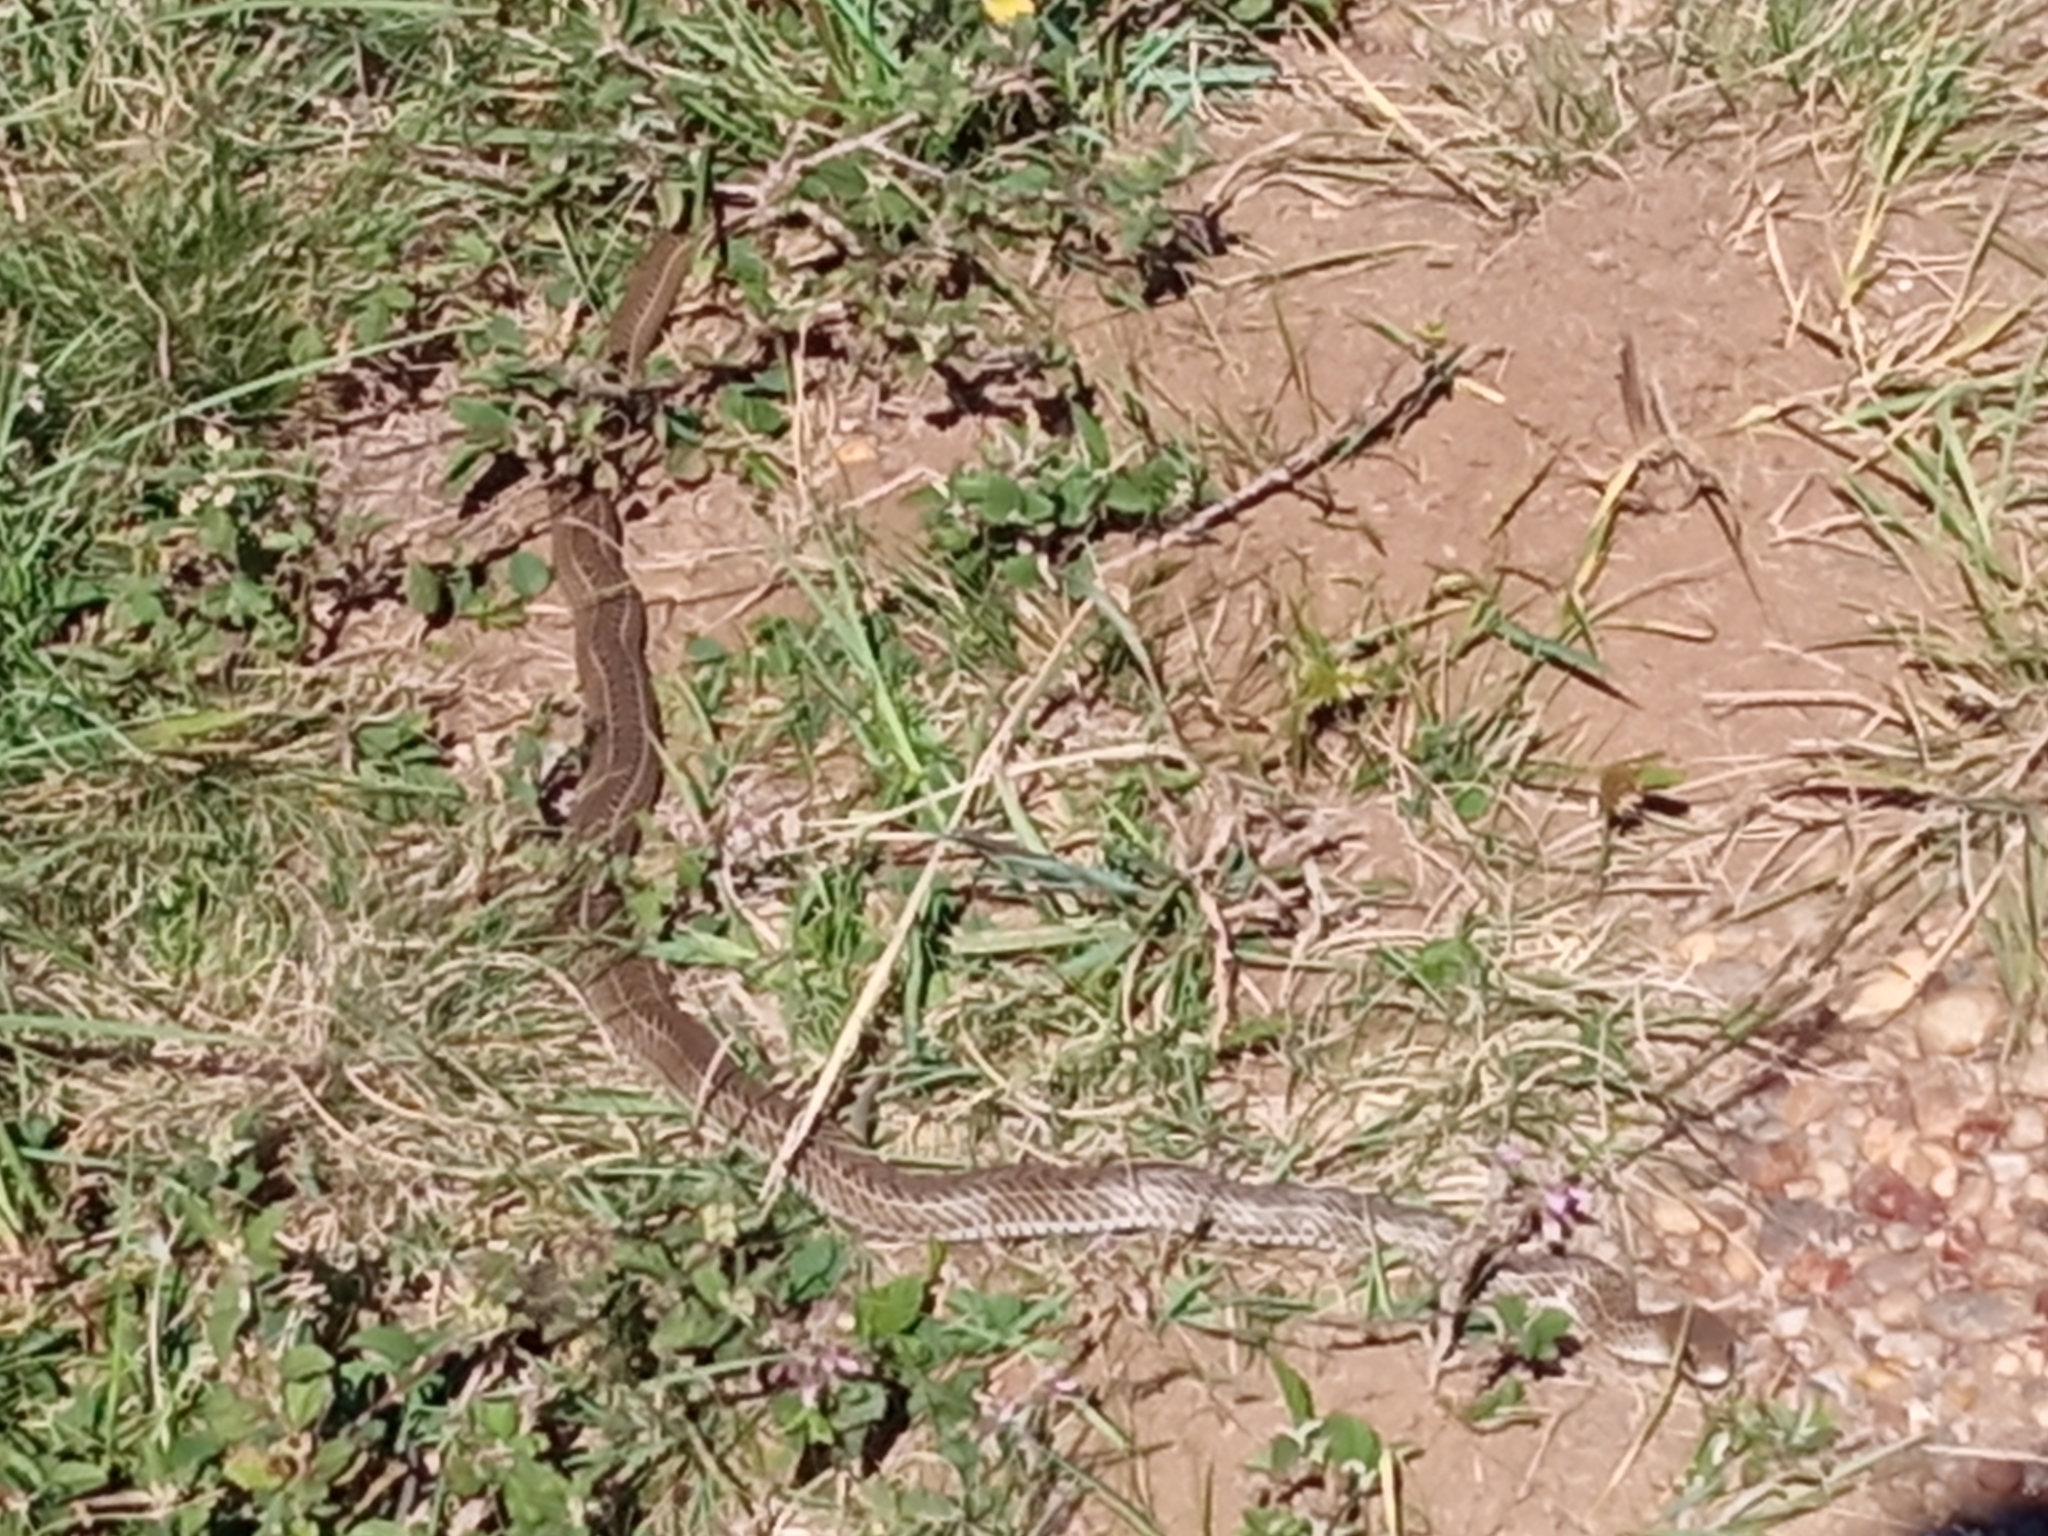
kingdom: Animalia
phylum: Chordata
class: Squamata
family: Colubridae
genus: Philodryas
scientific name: Philodryas patagoniensis
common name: Patagonia green racer
